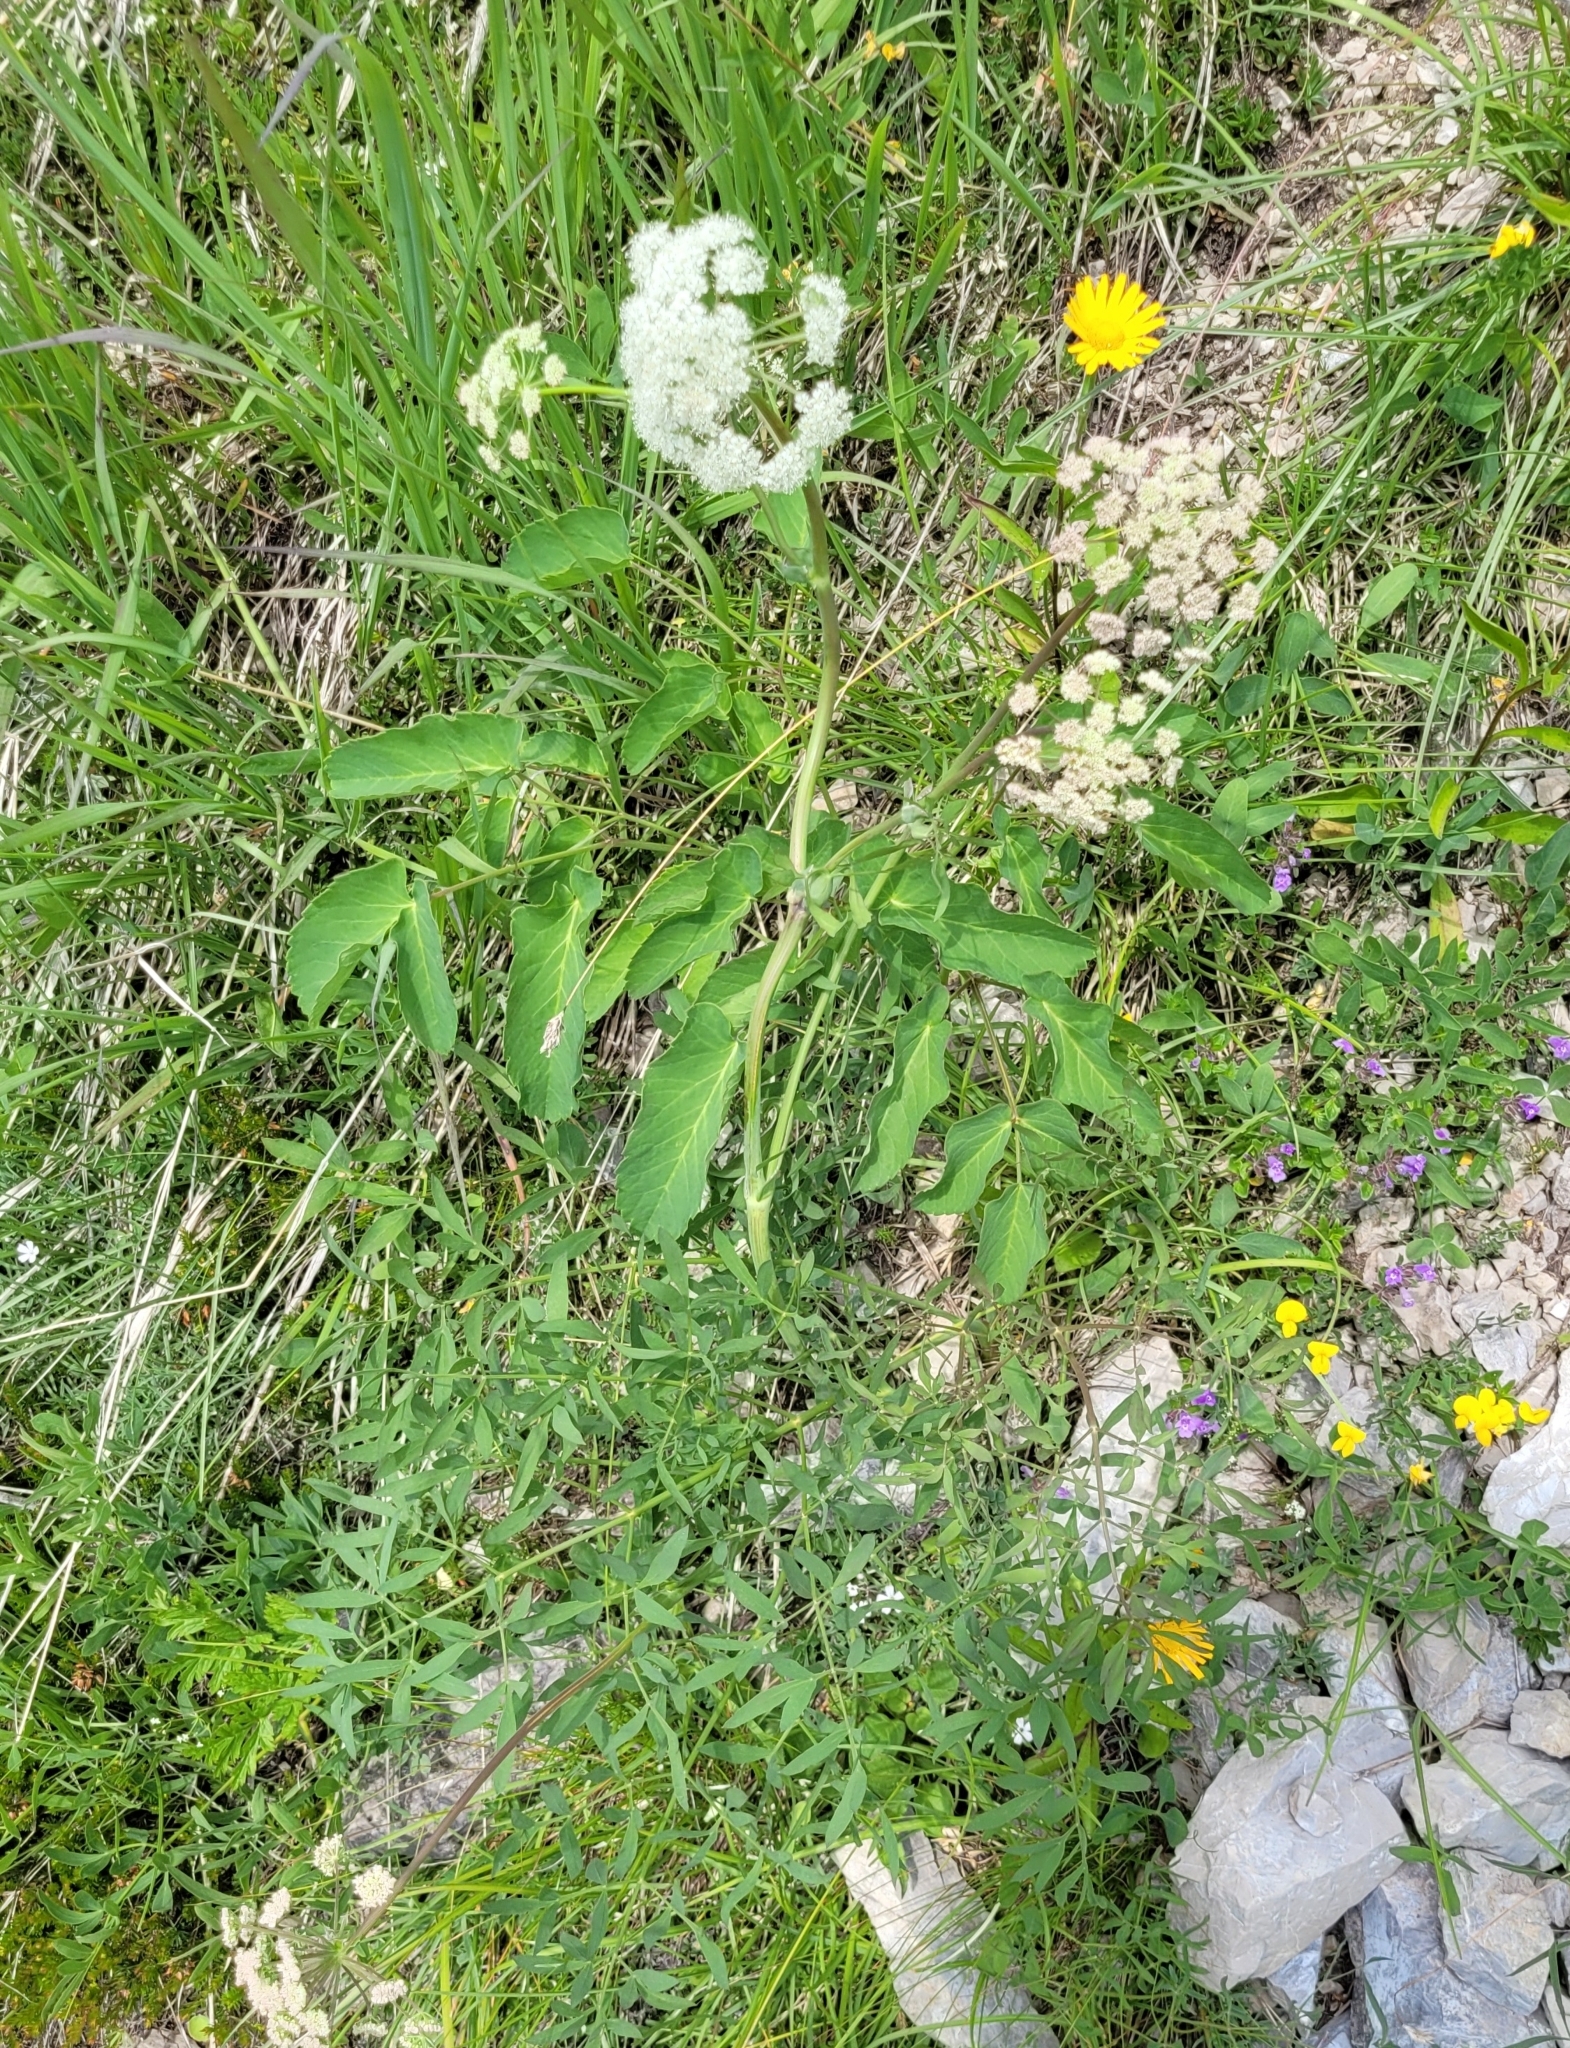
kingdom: Plantae
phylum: Tracheophyta
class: Magnoliopsida
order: Apiales
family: Apiaceae
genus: Siler
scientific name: Siler montanum
